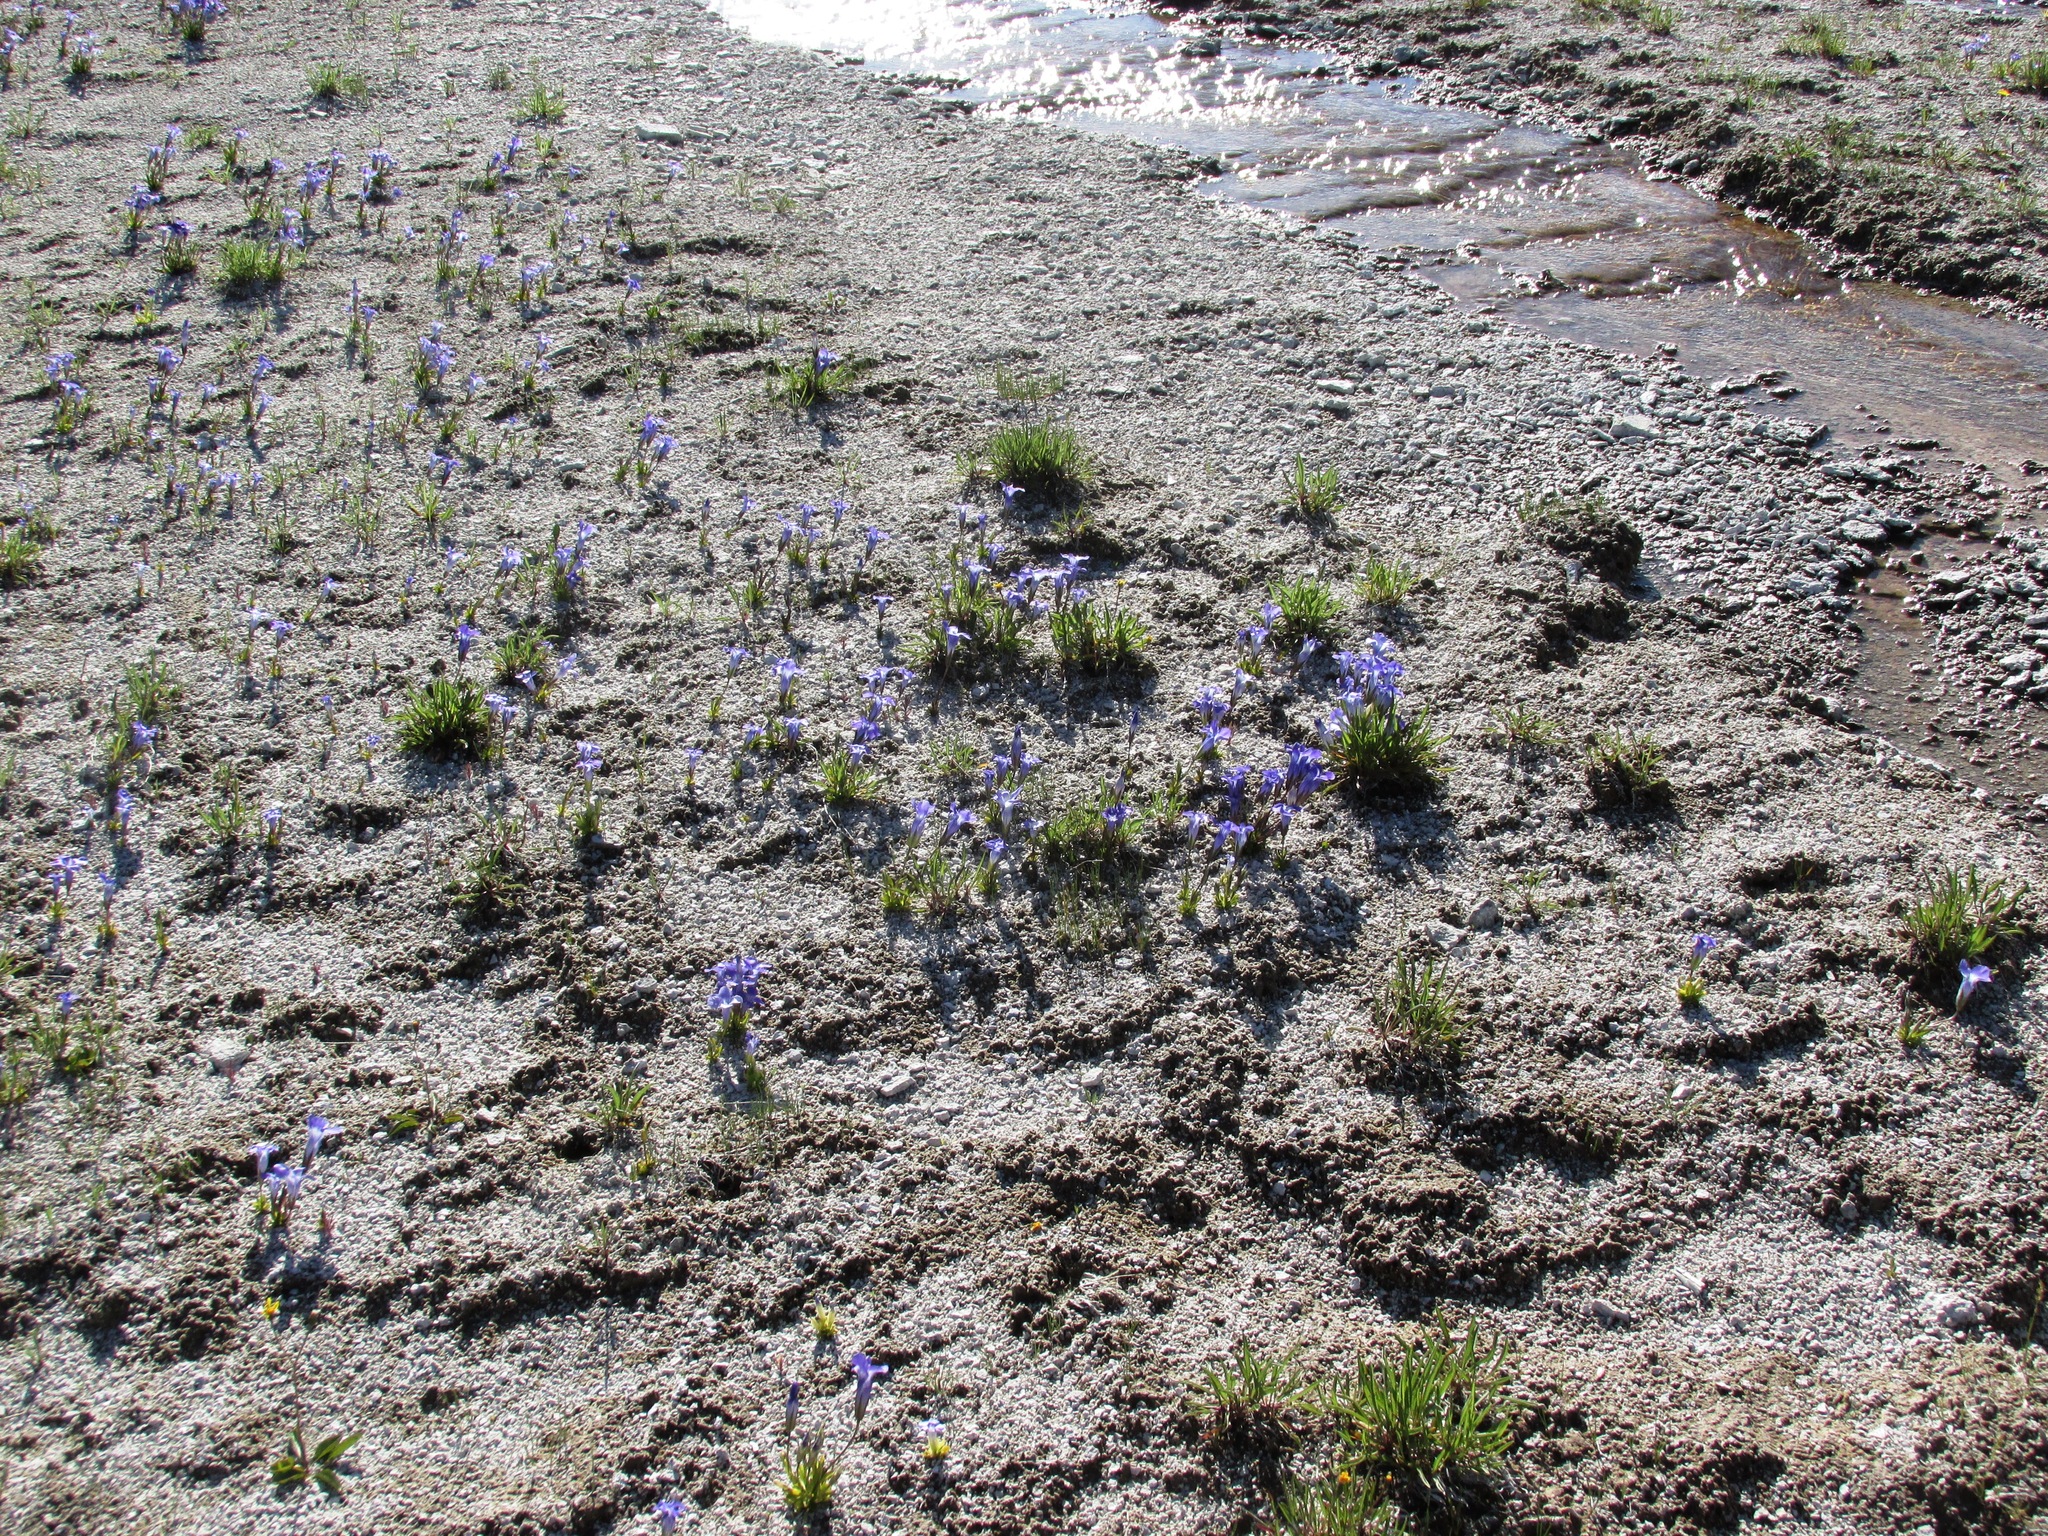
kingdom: Plantae
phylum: Tracheophyta
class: Magnoliopsida
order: Gentianales
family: Gentianaceae
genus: Gentianopsis
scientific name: Gentianopsis thermalis
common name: Rocky mountain fringed-gentian
